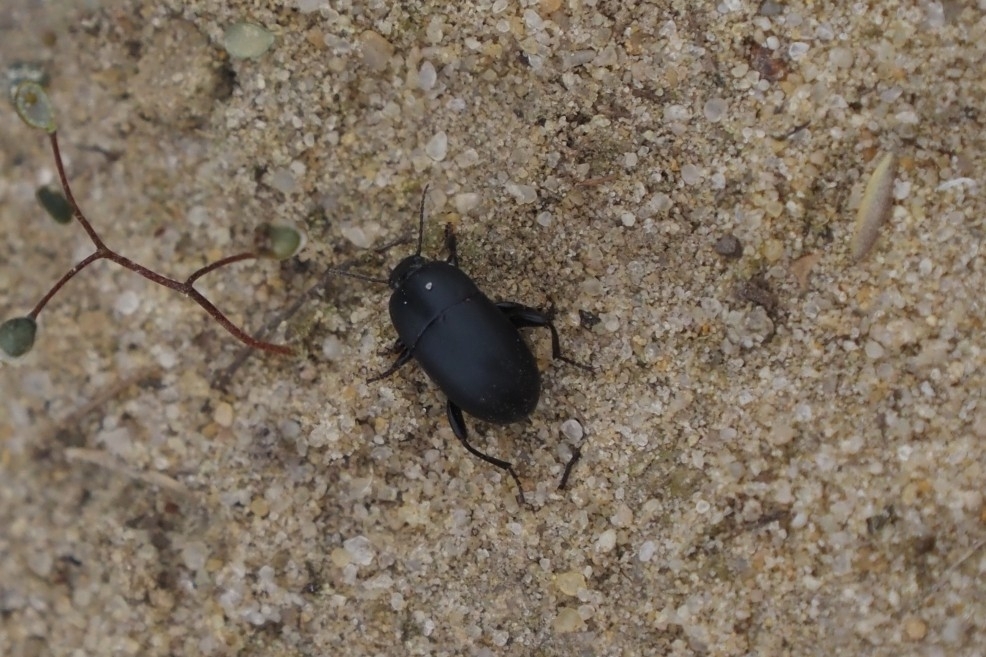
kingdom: Animalia
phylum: Arthropoda
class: Insecta
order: Coleoptera
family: Tenebrionidae
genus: Pedinus
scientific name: Pedinus femoralis
